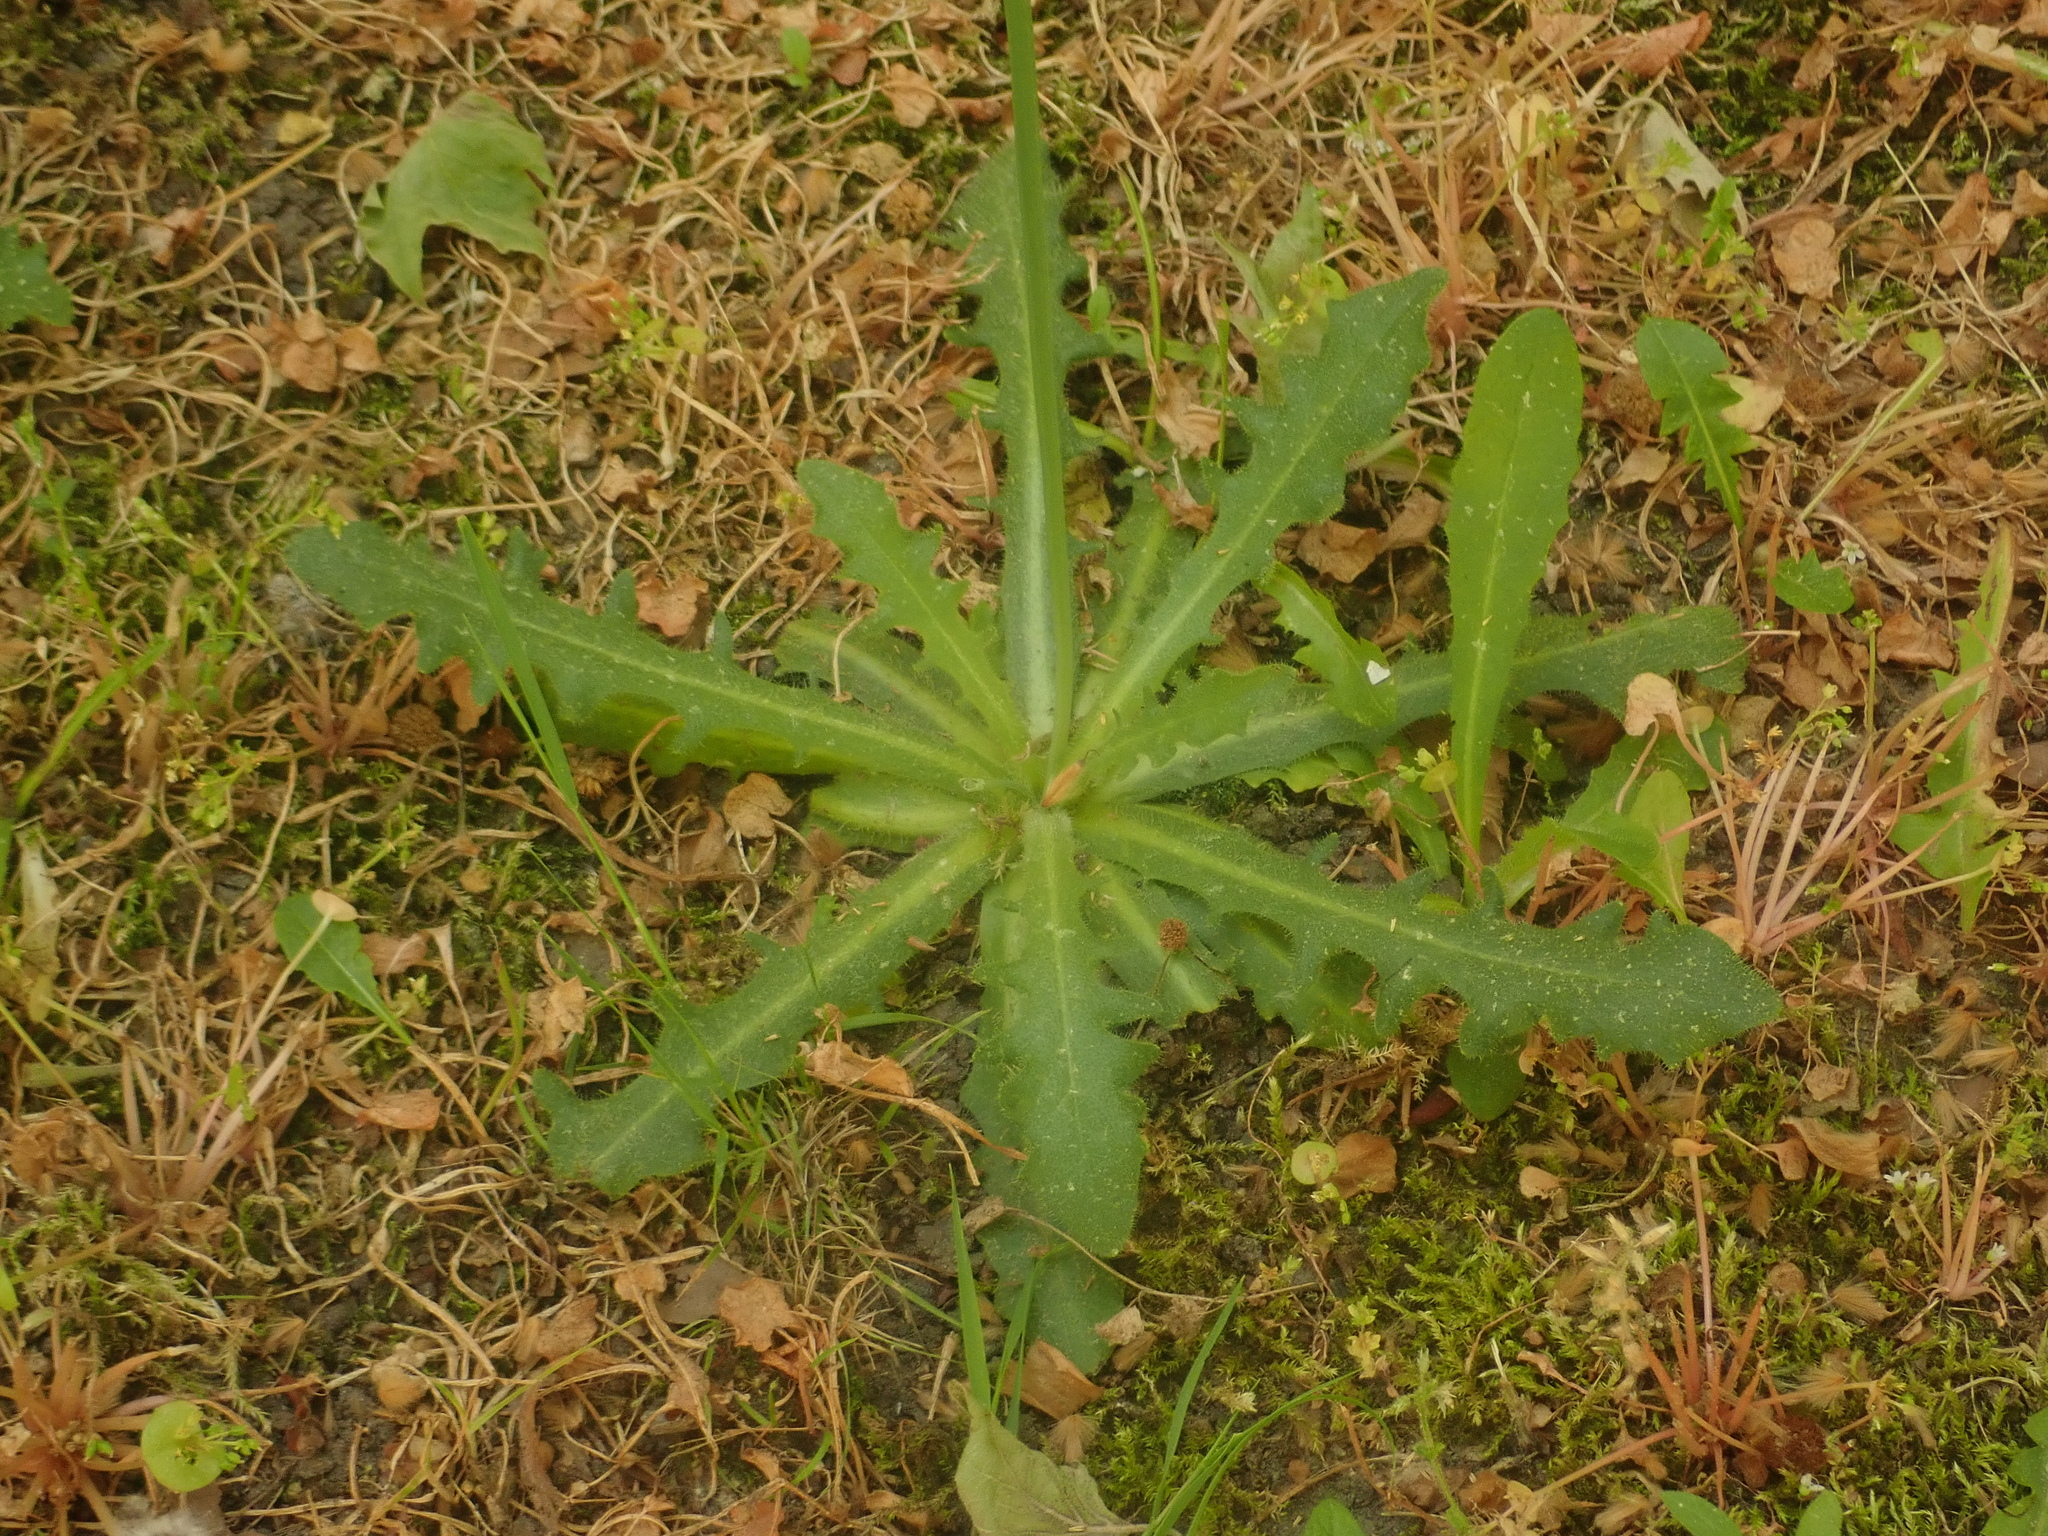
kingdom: Plantae
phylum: Tracheophyta
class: Magnoliopsida
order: Asterales
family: Asteraceae
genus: Hypochaeris
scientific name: Hypochaeris radicata
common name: Flatweed
